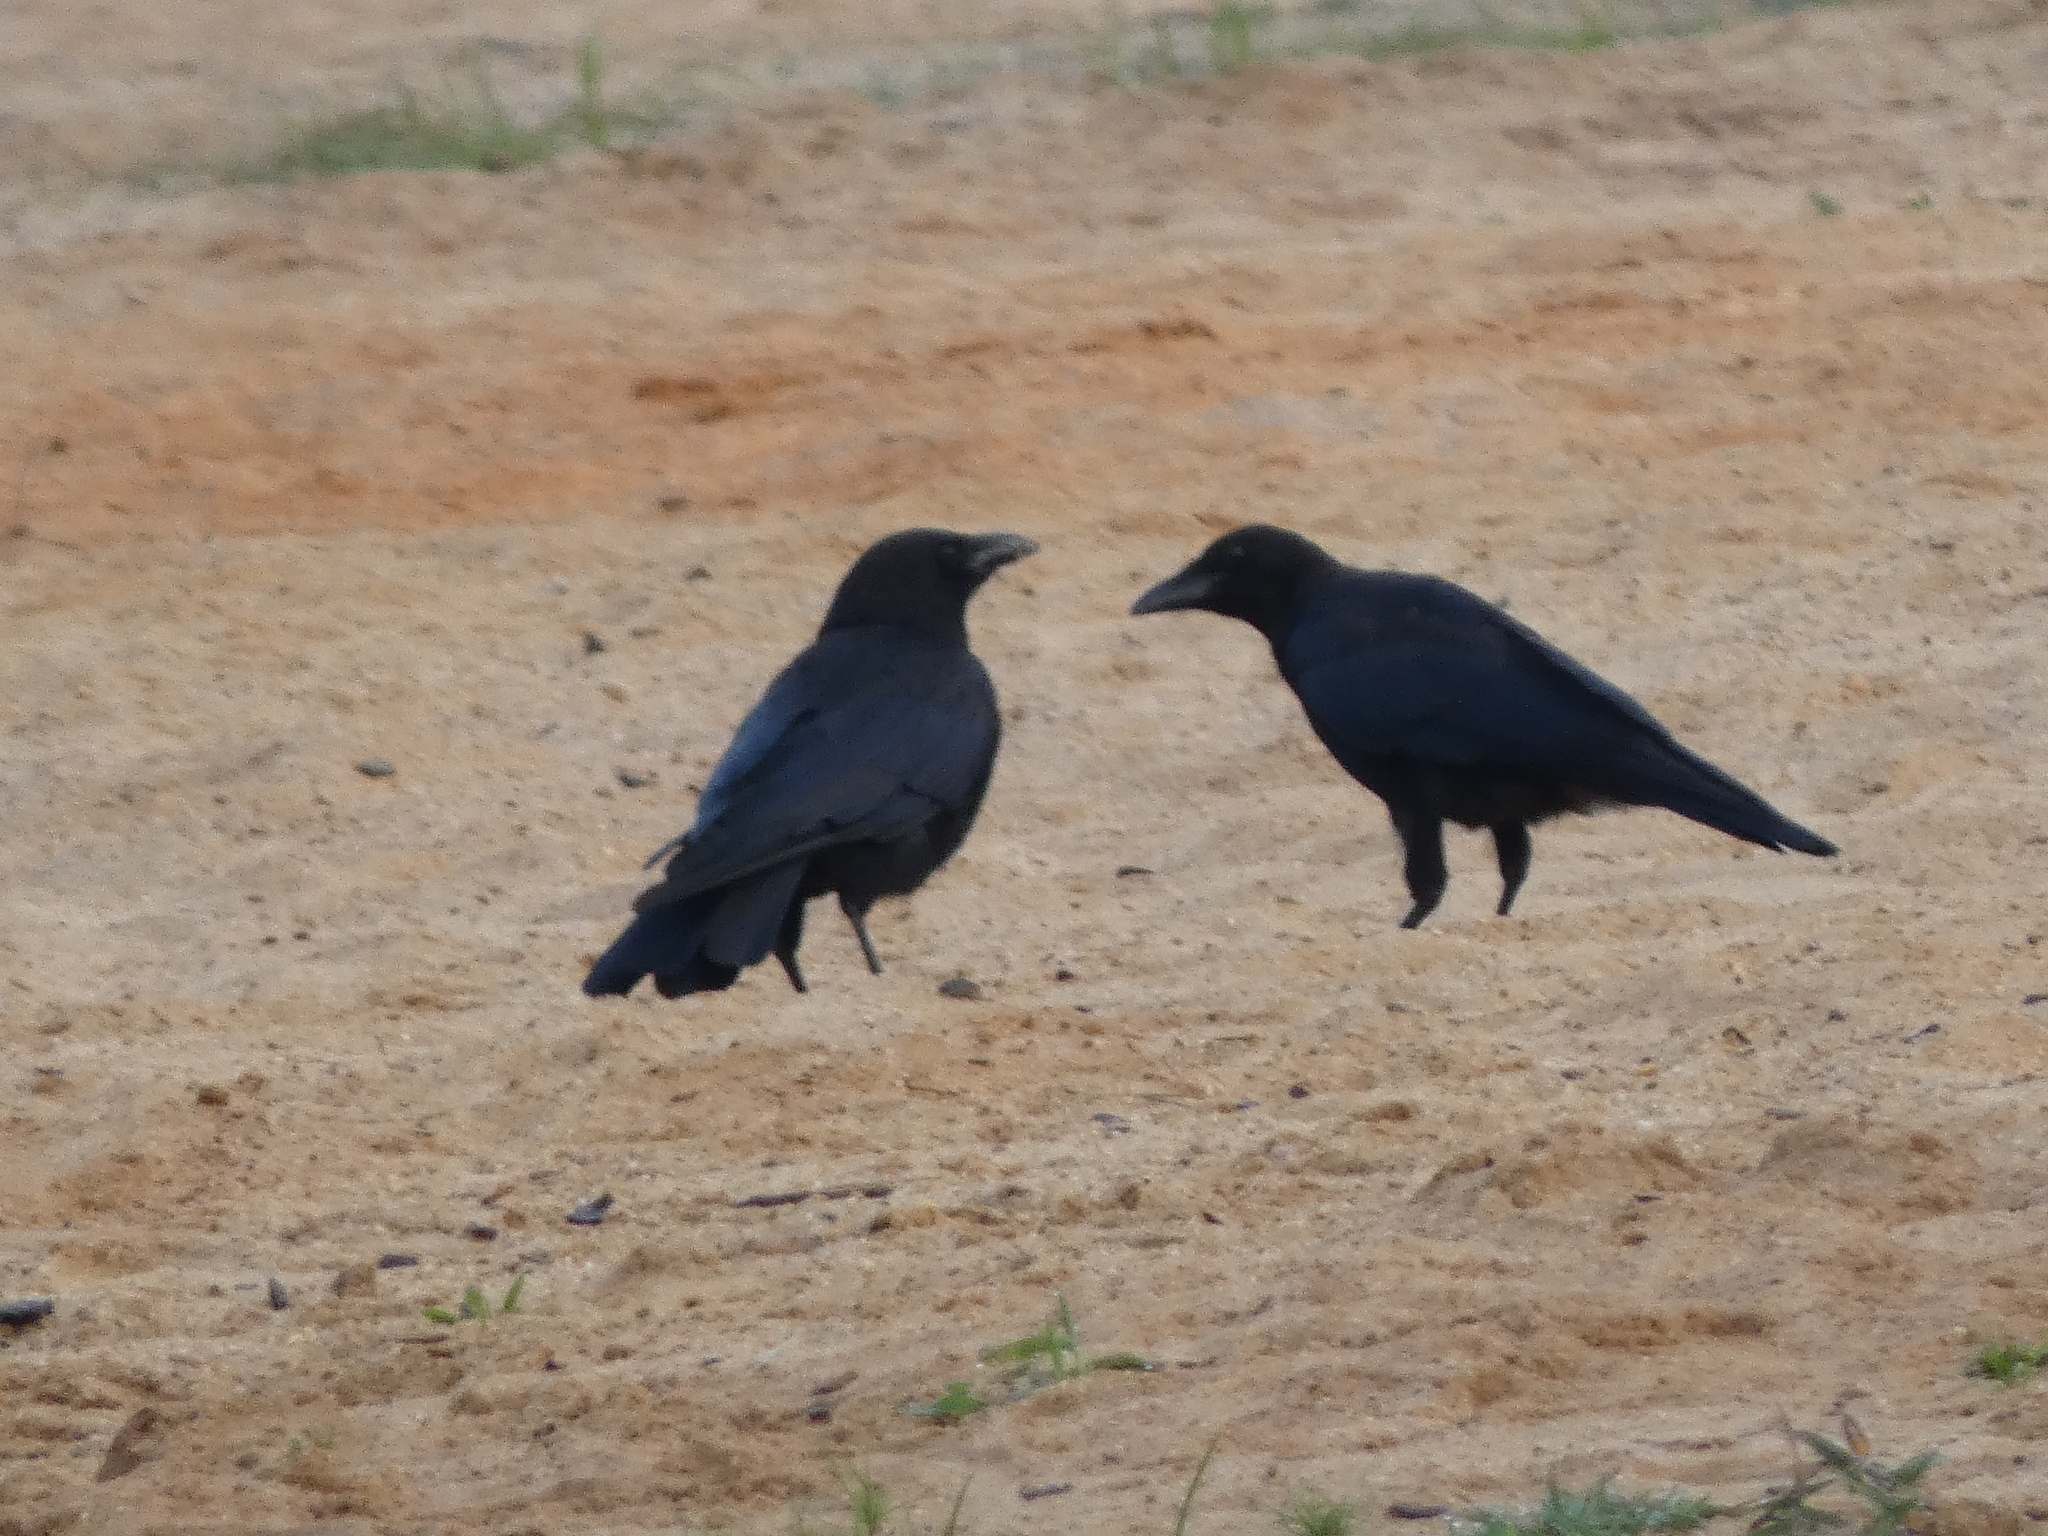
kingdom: Animalia
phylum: Chordata
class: Aves
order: Passeriformes
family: Corvidae
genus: Corvus
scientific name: Corvus
